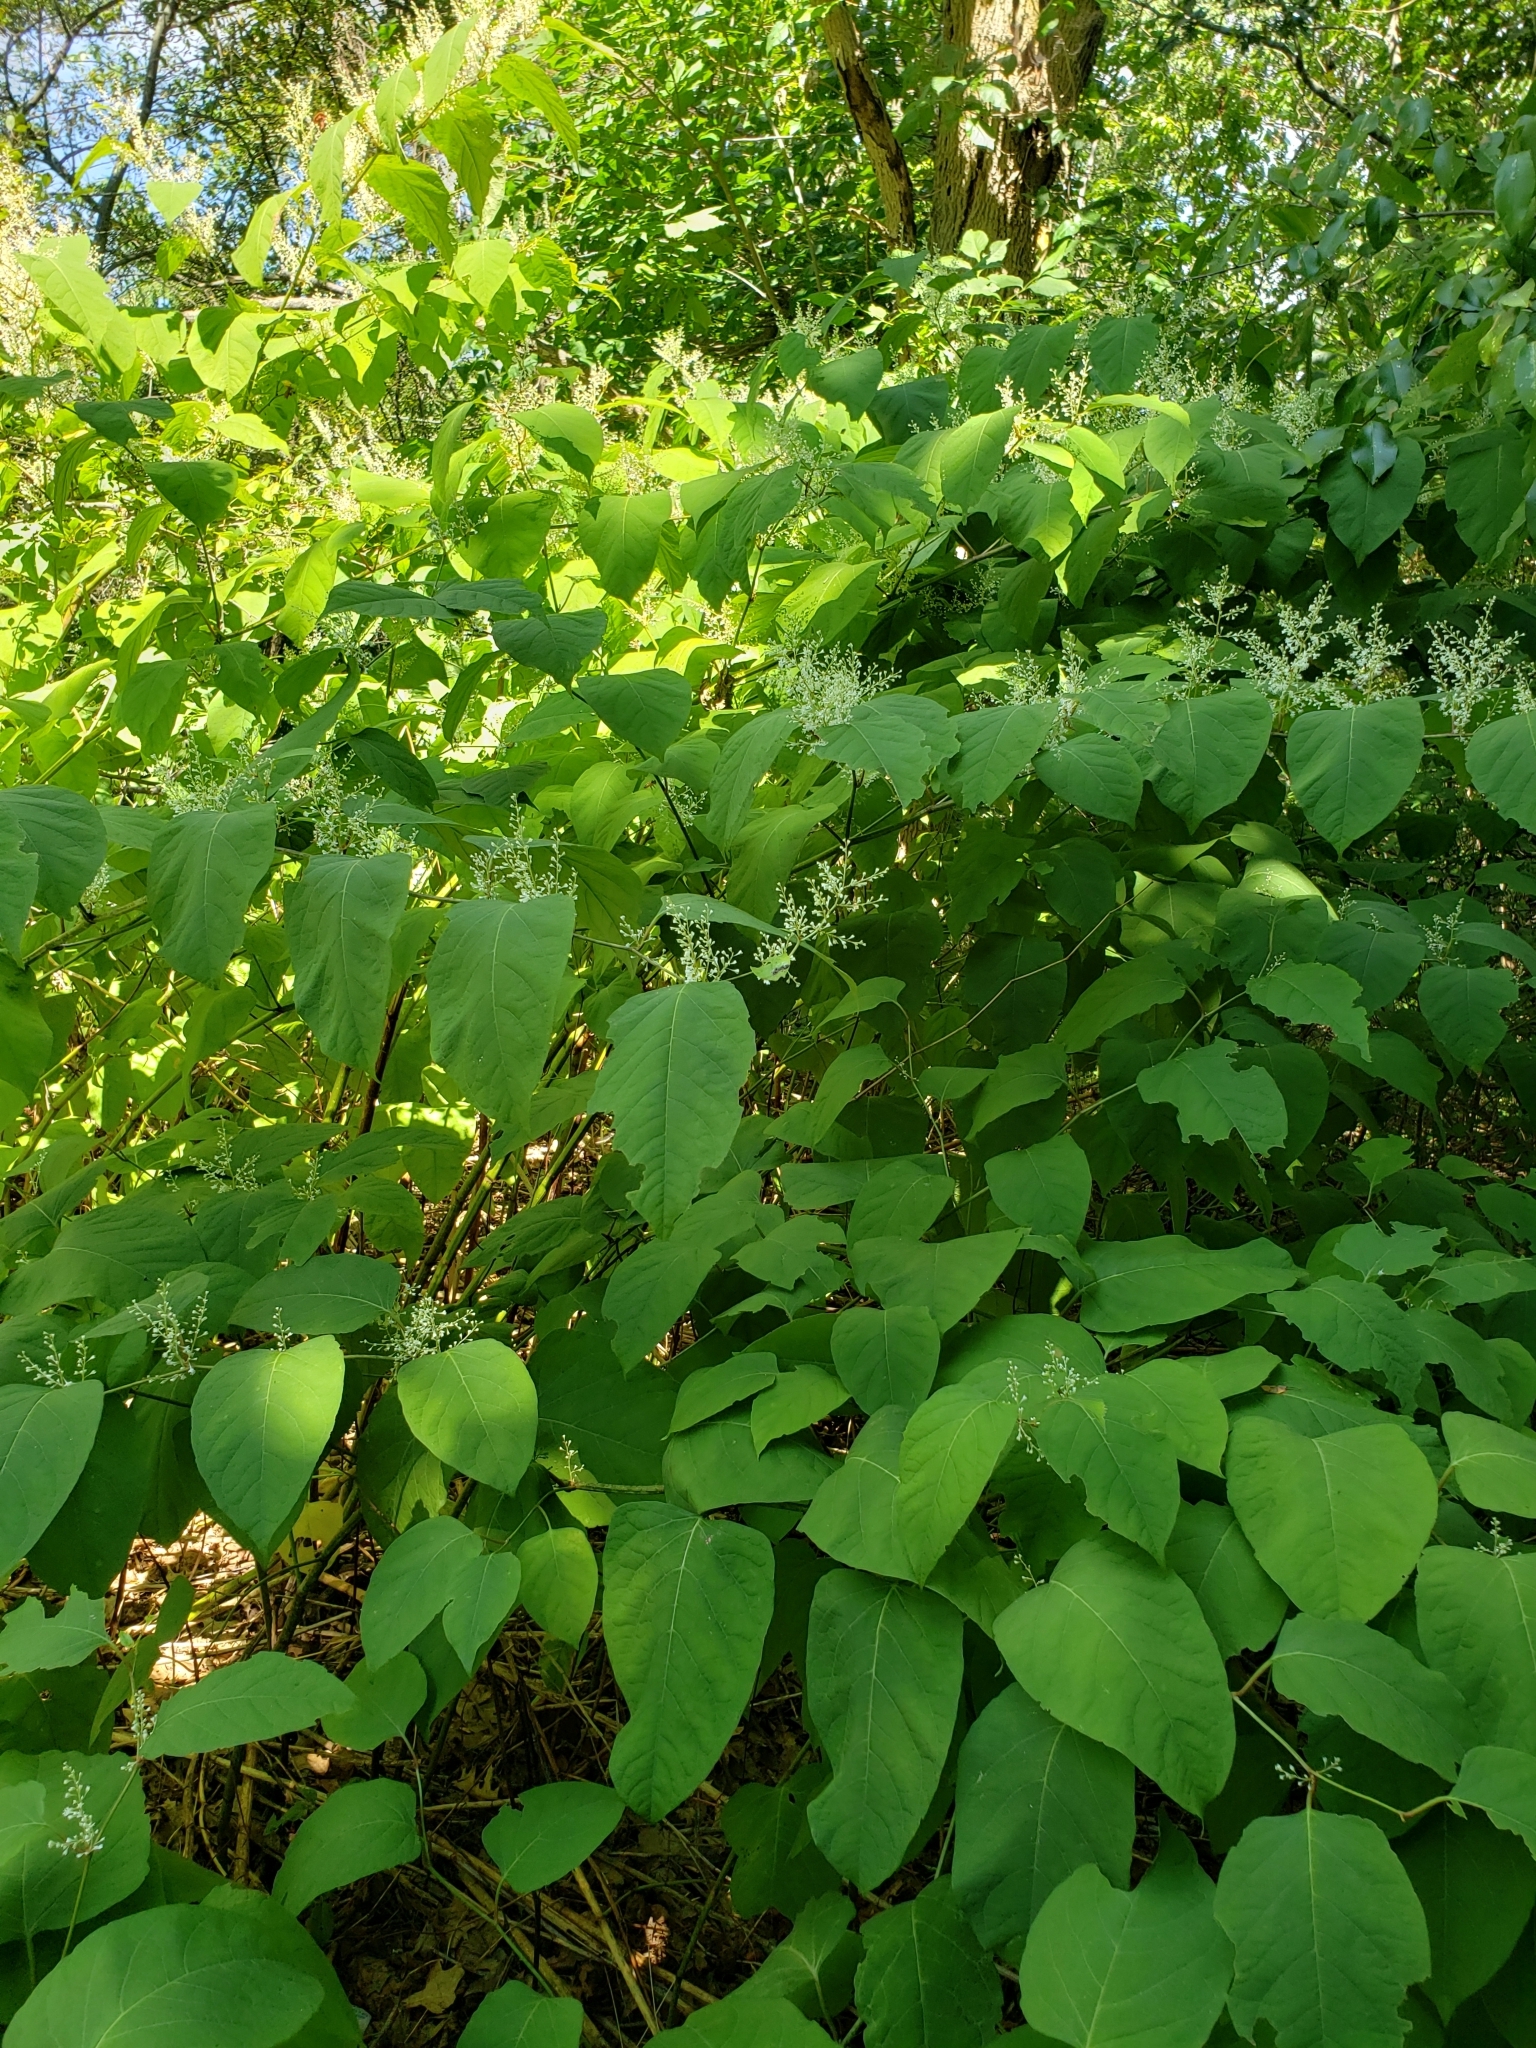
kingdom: Plantae
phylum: Tracheophyta
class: Magnoliopsida
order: Caryophyllales
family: Polygonaceae
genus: Reynoutria
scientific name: Reynoutria japonica
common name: Japanese knotweed
